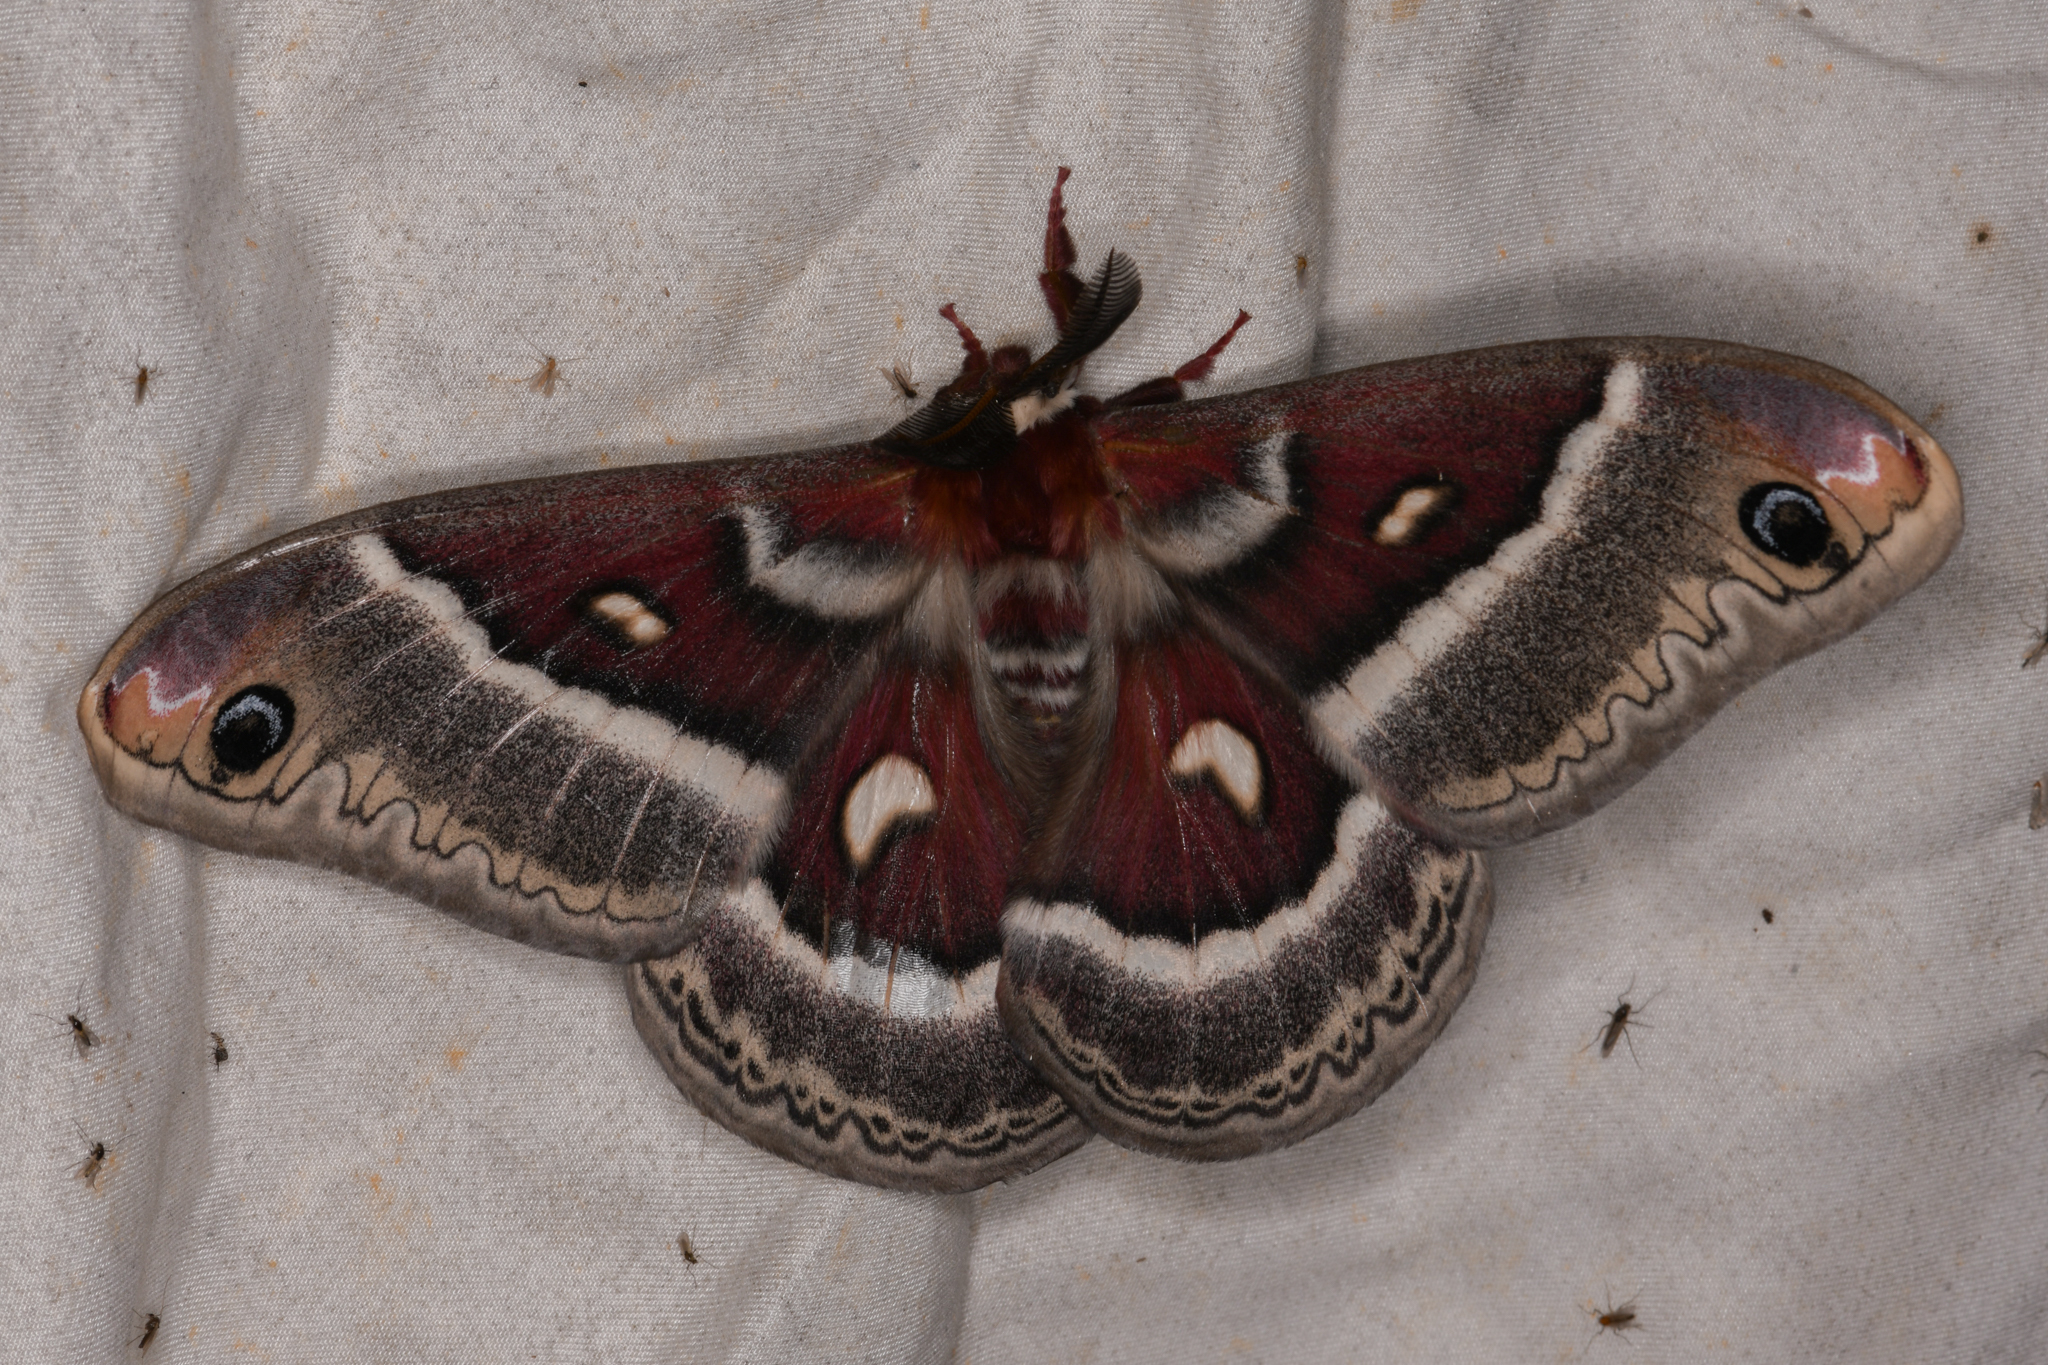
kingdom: Animalia
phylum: Arthropoda
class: Insecta
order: Lepidoptera
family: Saturniidae
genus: Hyalophora
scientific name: Hyalophora gloveri
